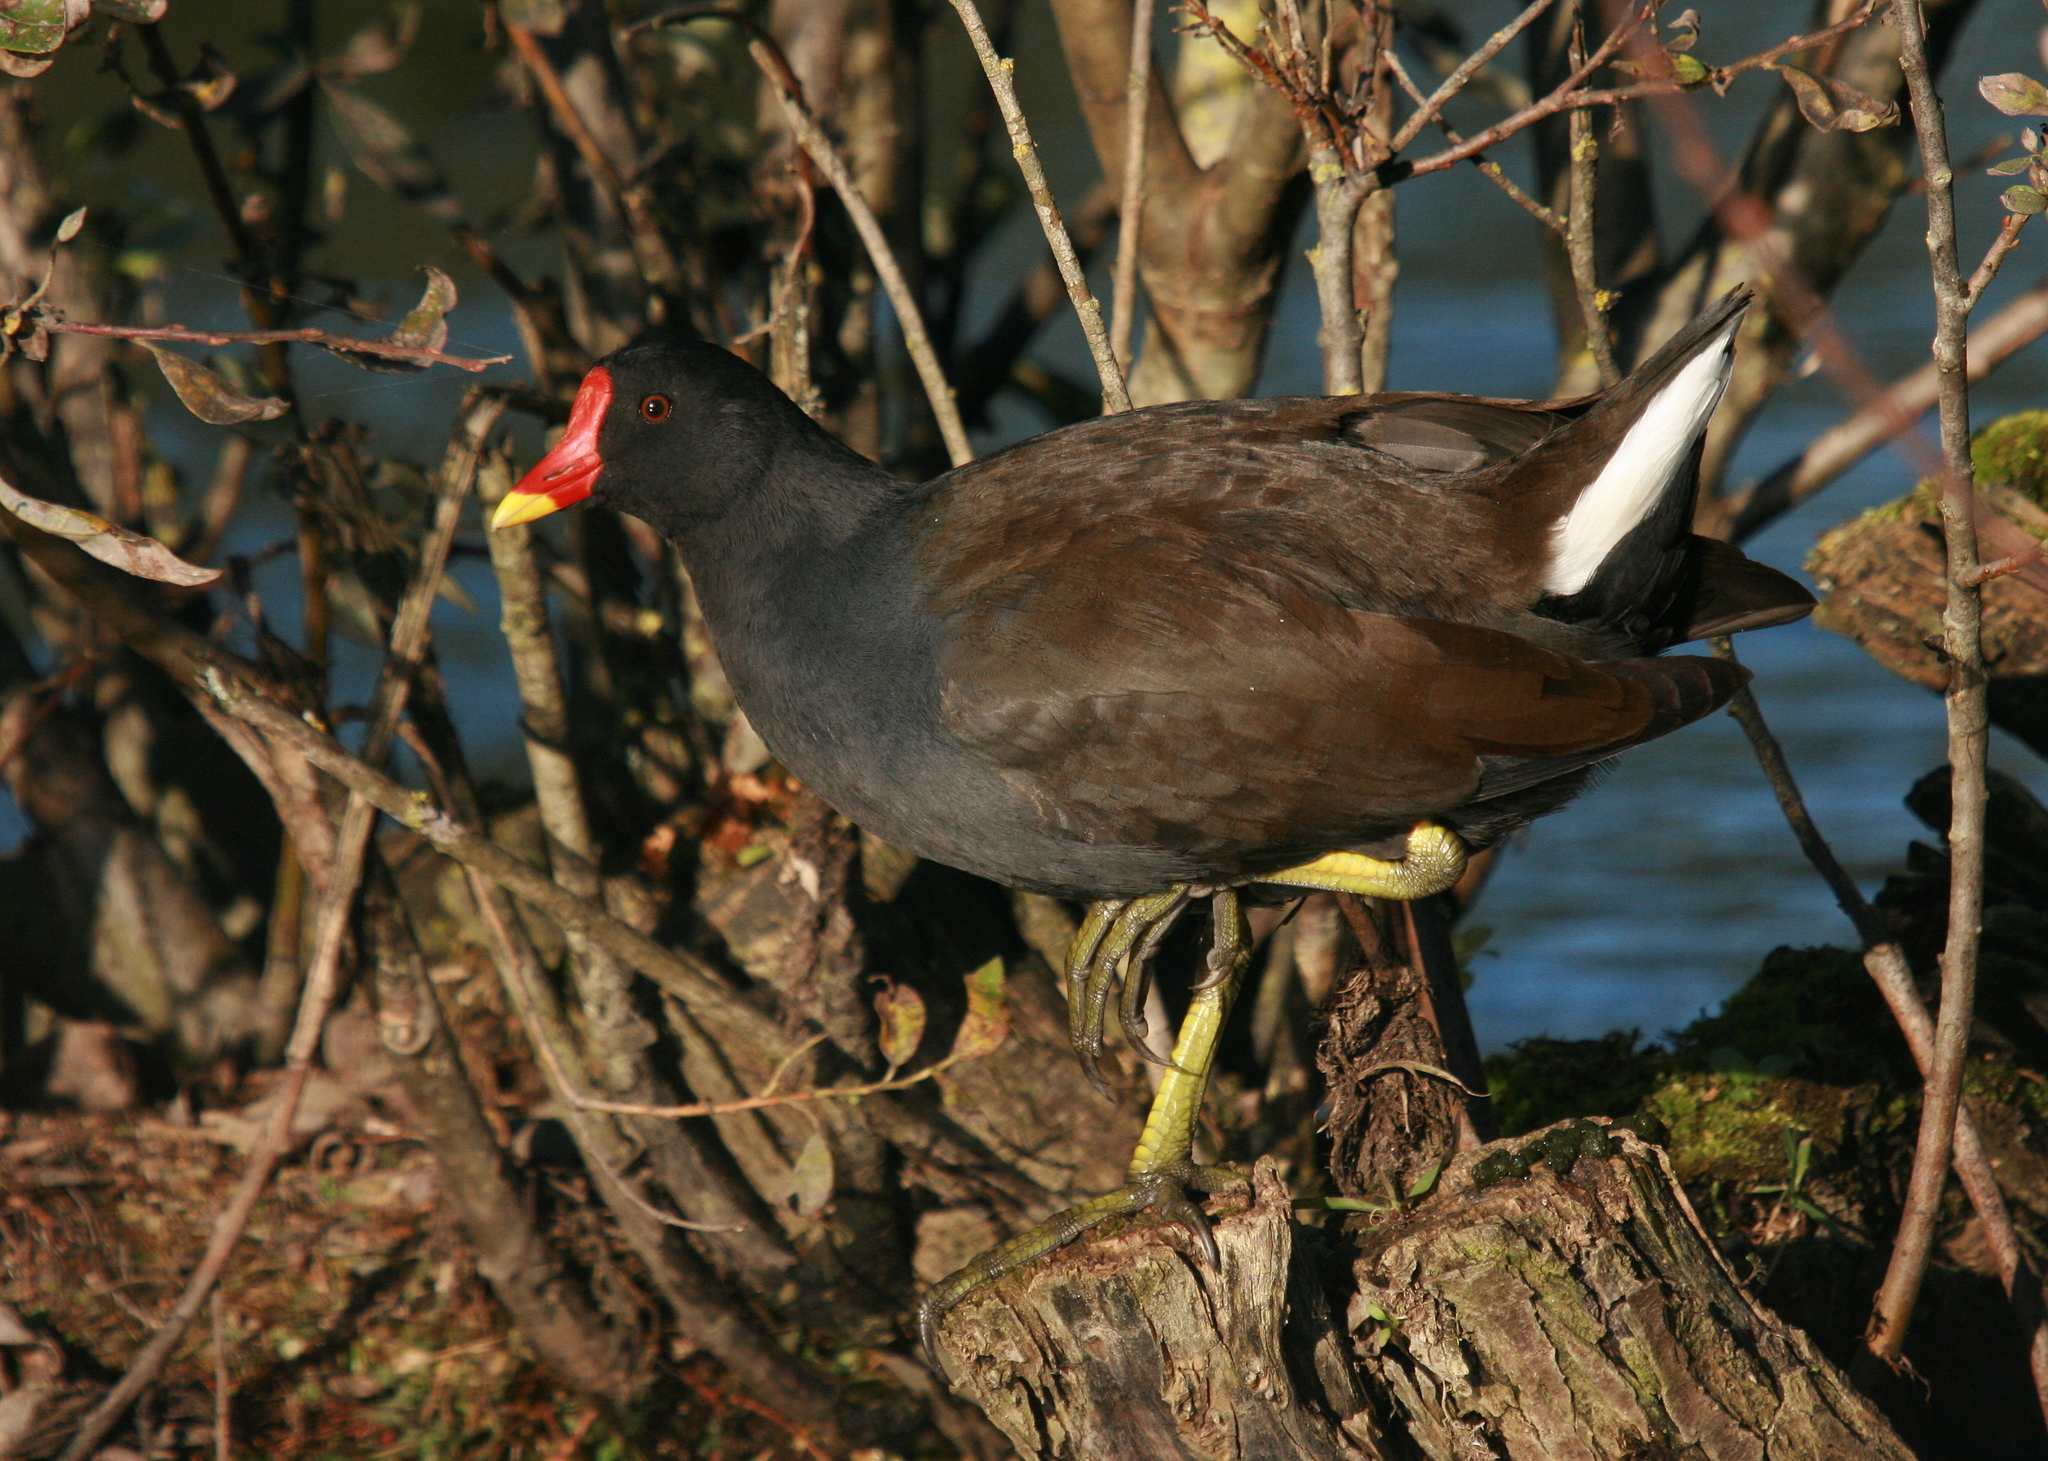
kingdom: Animalia
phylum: Chordata
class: Aves
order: Gruiformes
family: Rallidae
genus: Gallinula
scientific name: Gallinula chloropus
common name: Common moorhen
